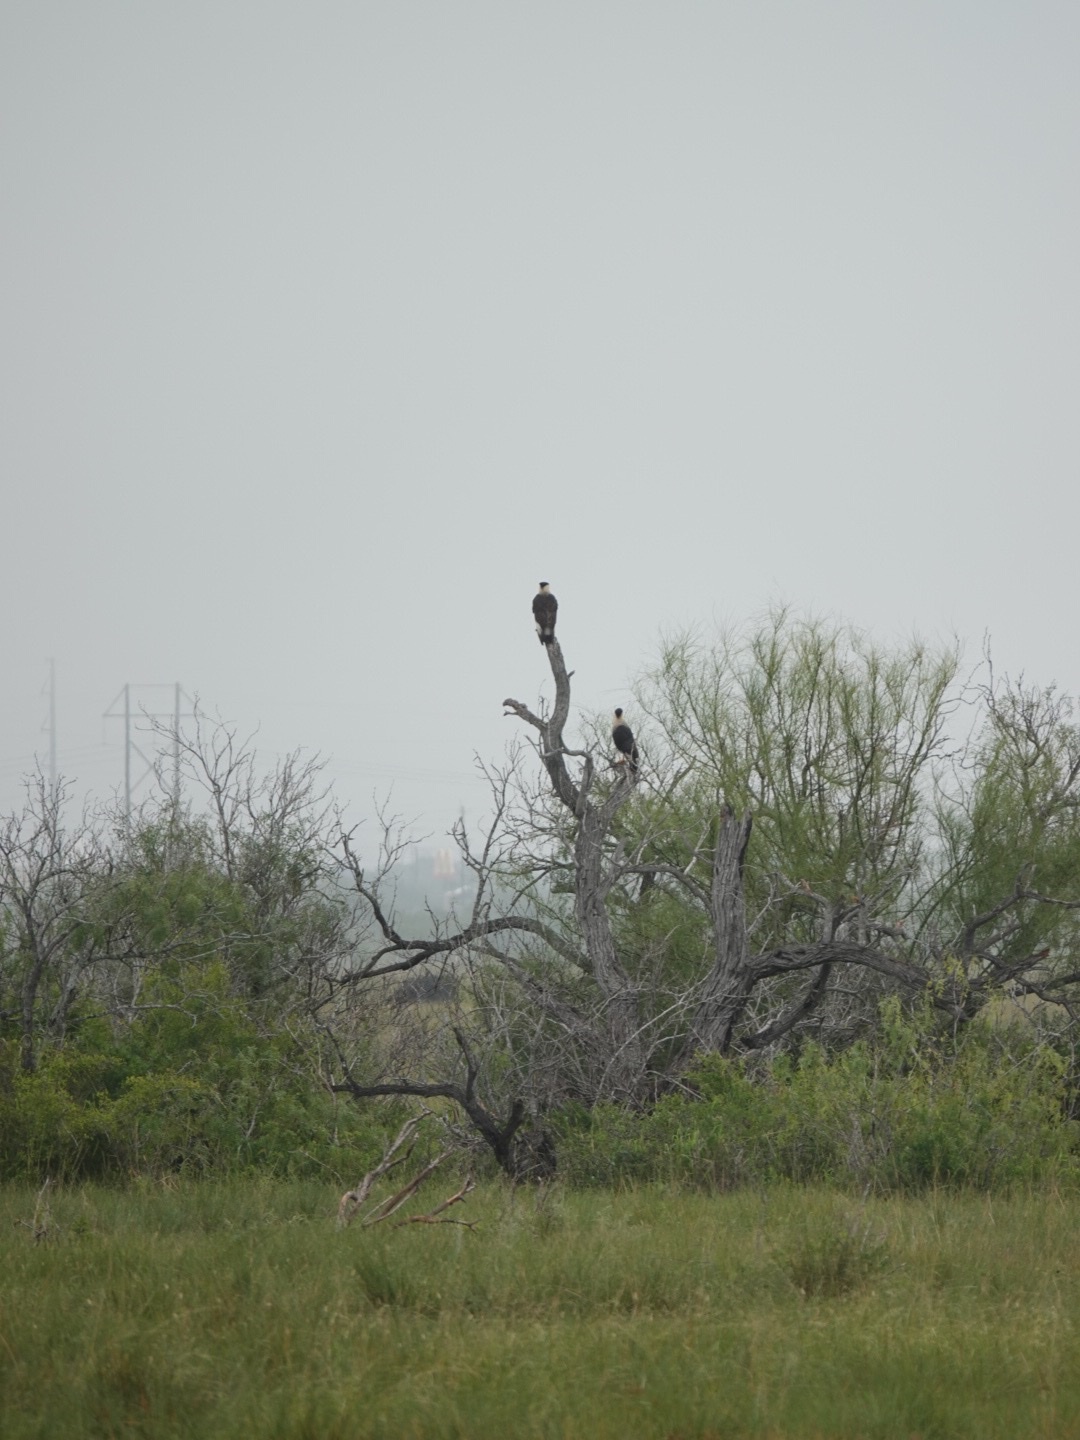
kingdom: Animalia
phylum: Chordata
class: Aves
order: Falconiformes
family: Falconidae
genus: Caracara
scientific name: Caracara plancus
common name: Southern caracara
